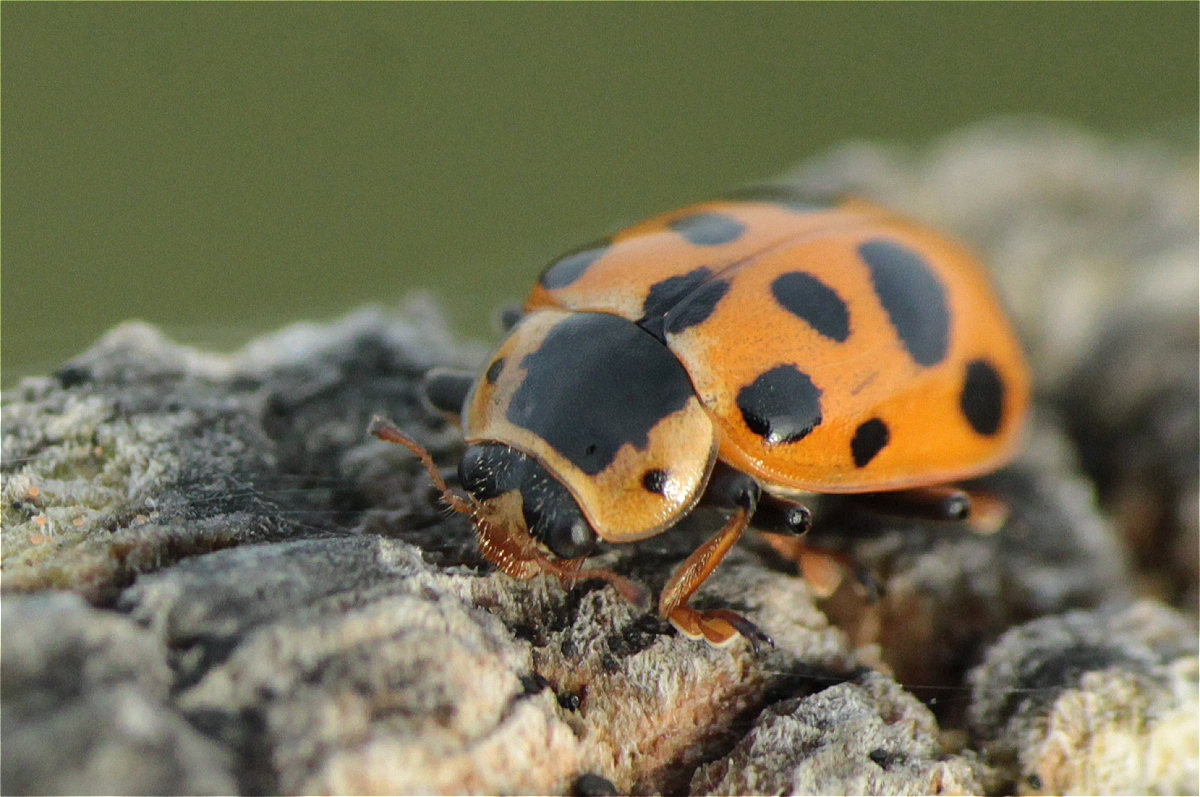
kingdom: Animalia
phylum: Arthropoda
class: Insecta
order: Coleoptera
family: Coccinellidae
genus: Hippodamia
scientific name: Hippodamia tredecimpunctata
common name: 13-spot ladybird
